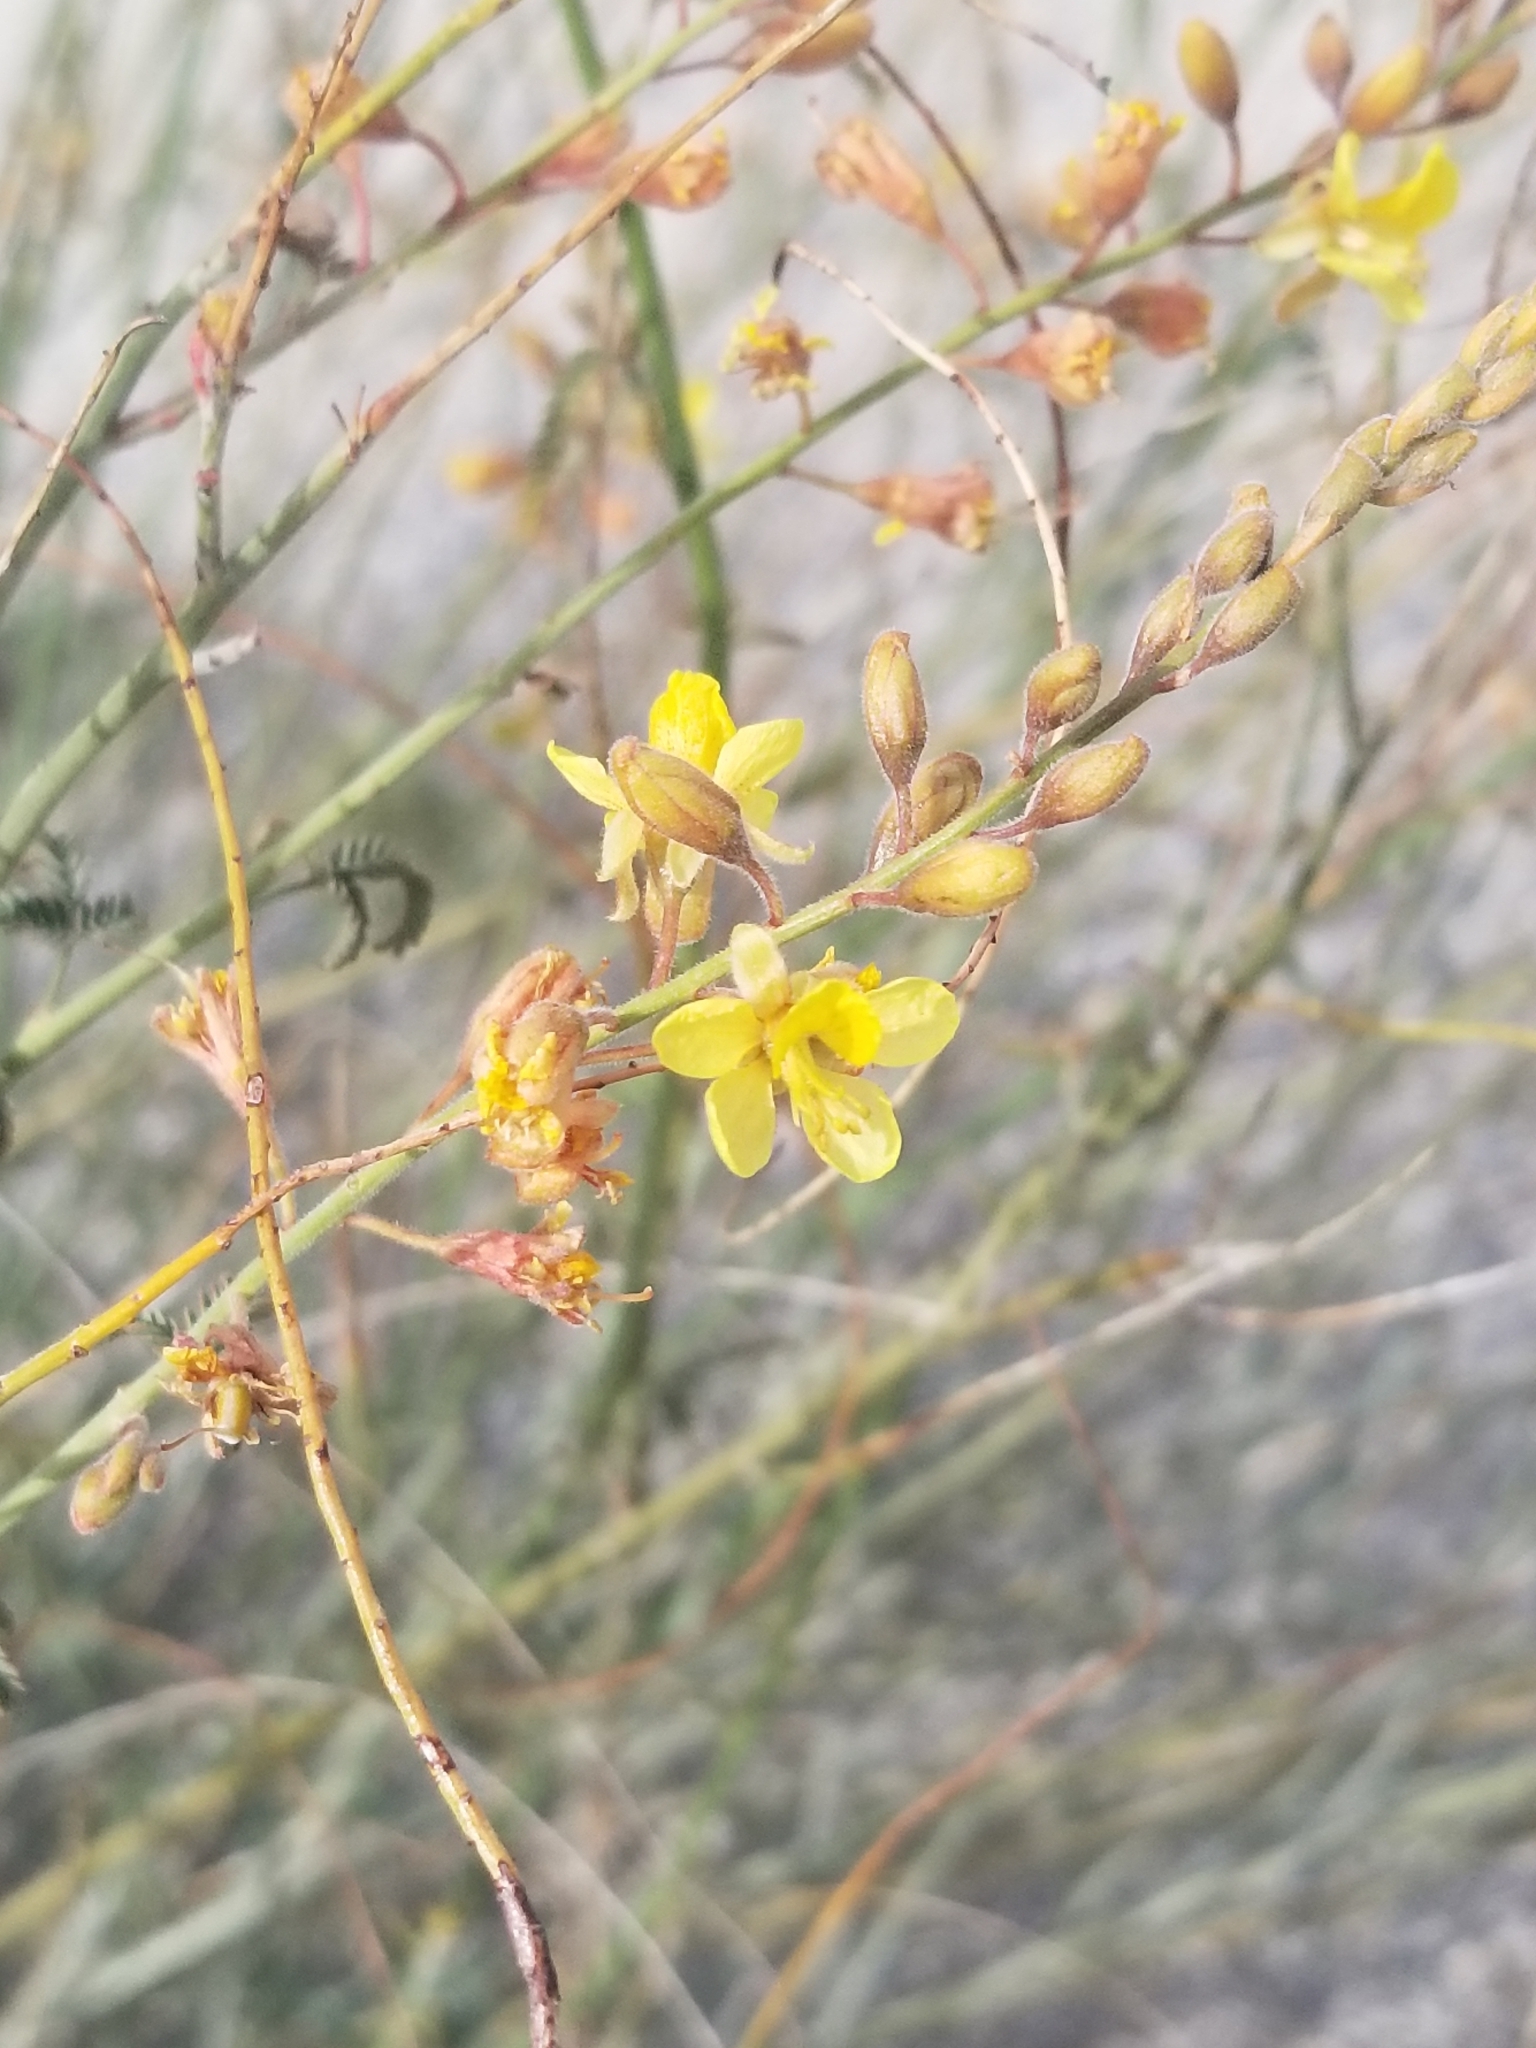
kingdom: Plantae
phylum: Tracheophyta
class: Magnoliopsida
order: Fabales
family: Fabaceae
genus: Hoffmannseggia
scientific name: Hoffmannseggia microphylla
